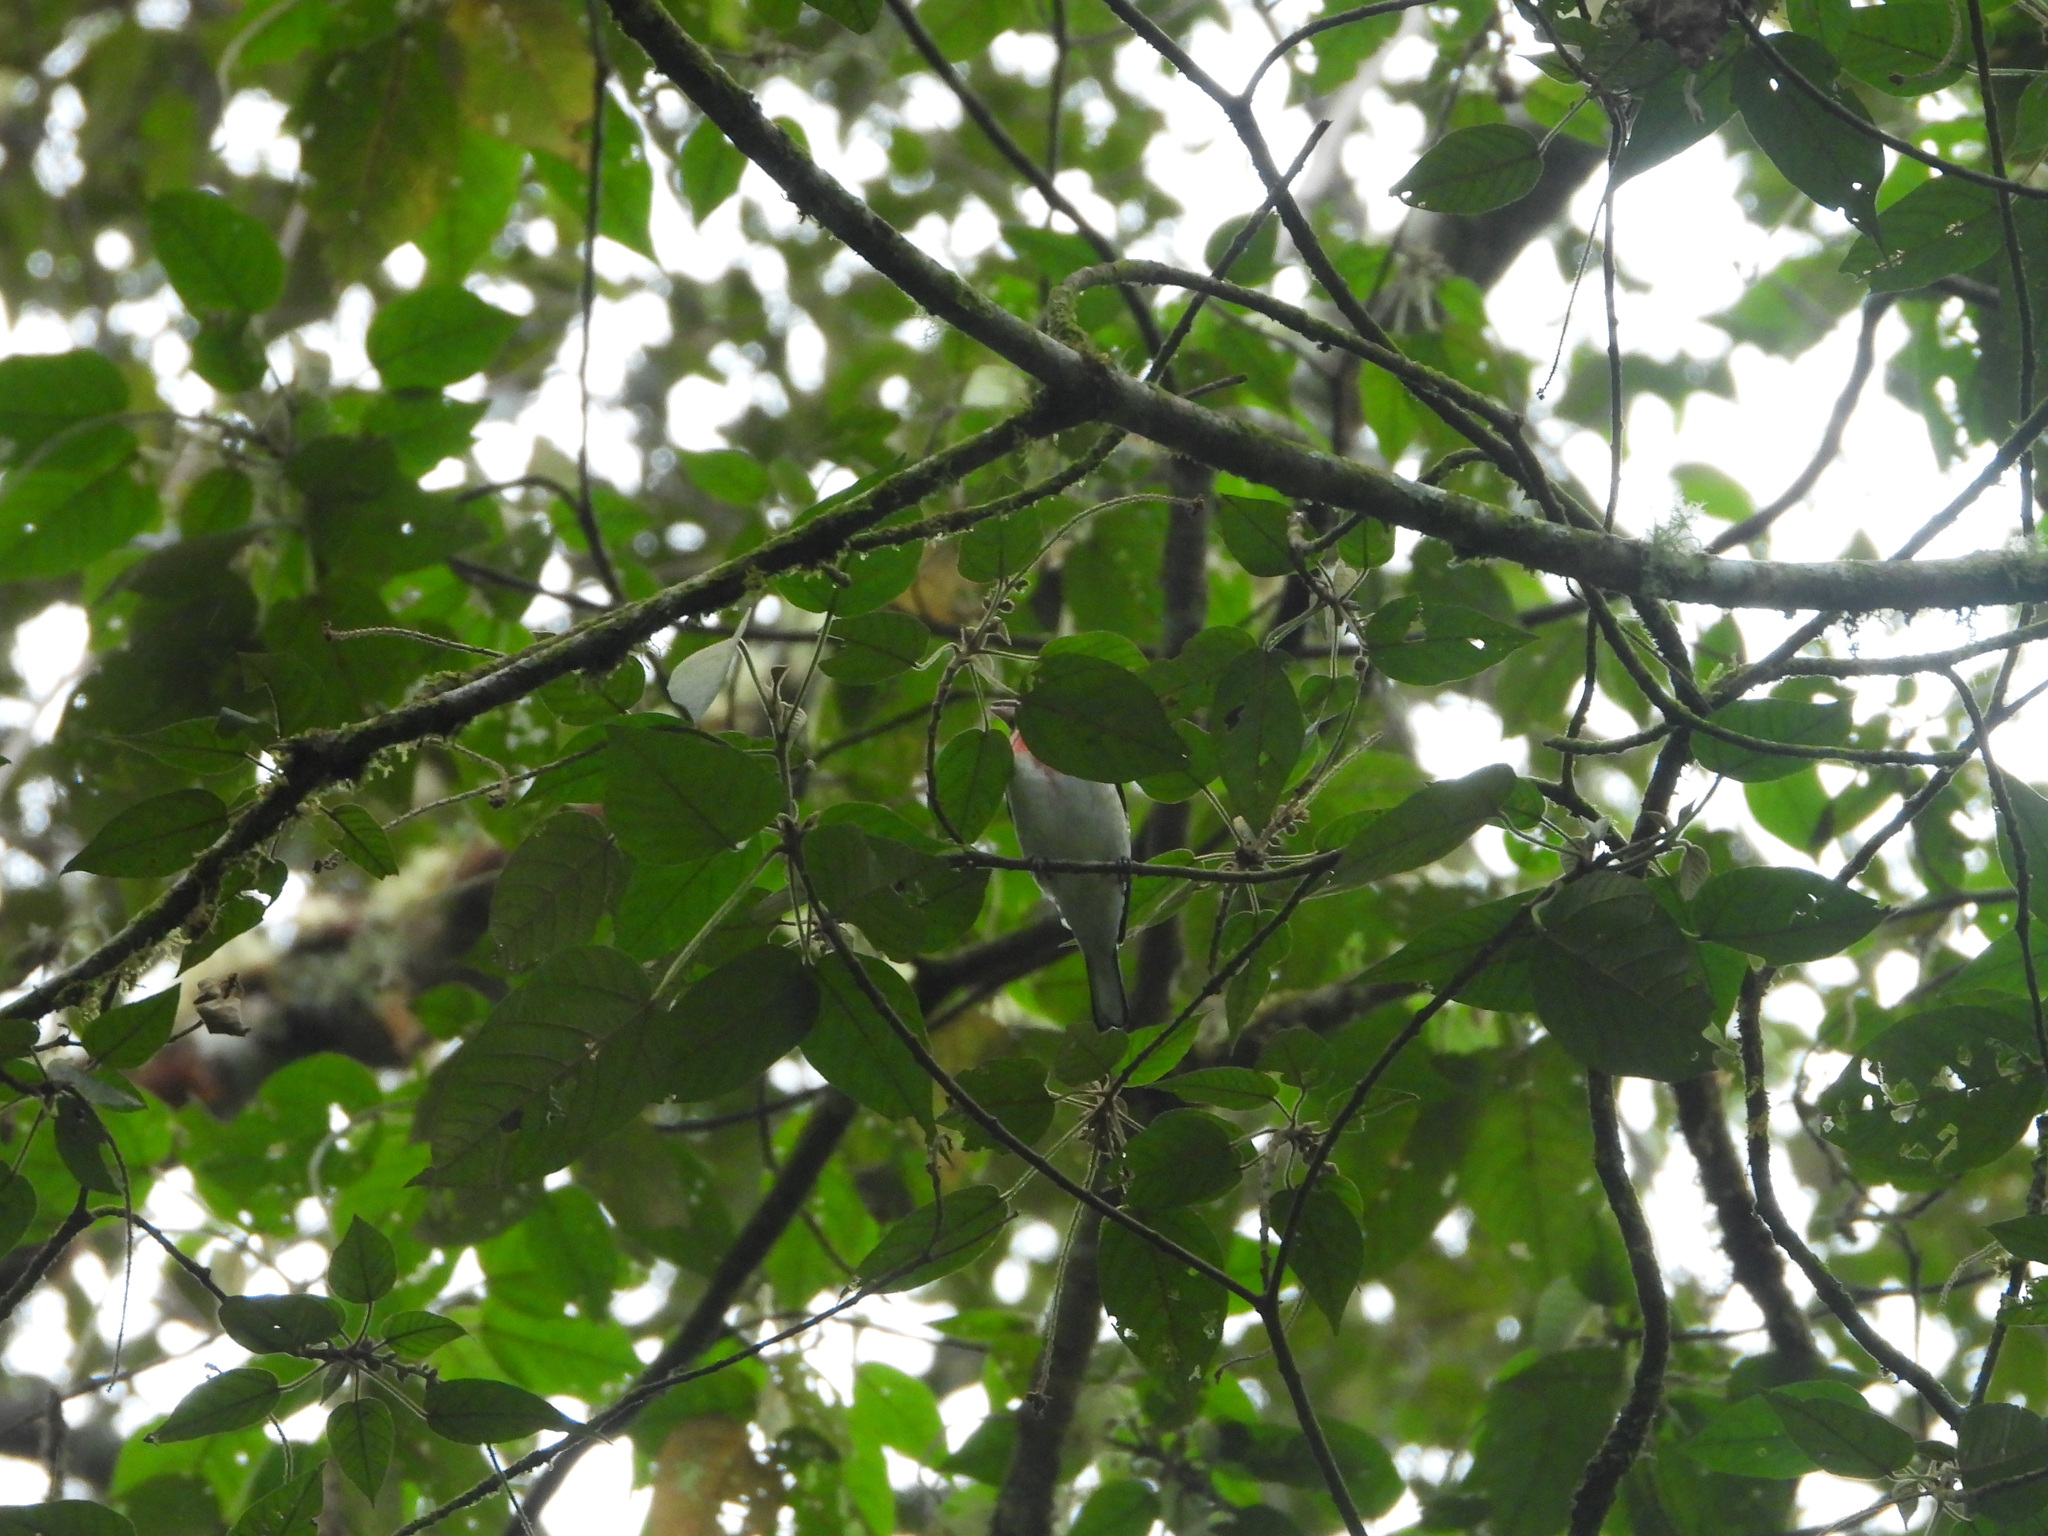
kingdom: Animalia
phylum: Chordata
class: Aves
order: Passeriformes
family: Cardinalidae
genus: Pheucticus
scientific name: Pheucticus ludovicianus
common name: Rose-breasted grosbeak
